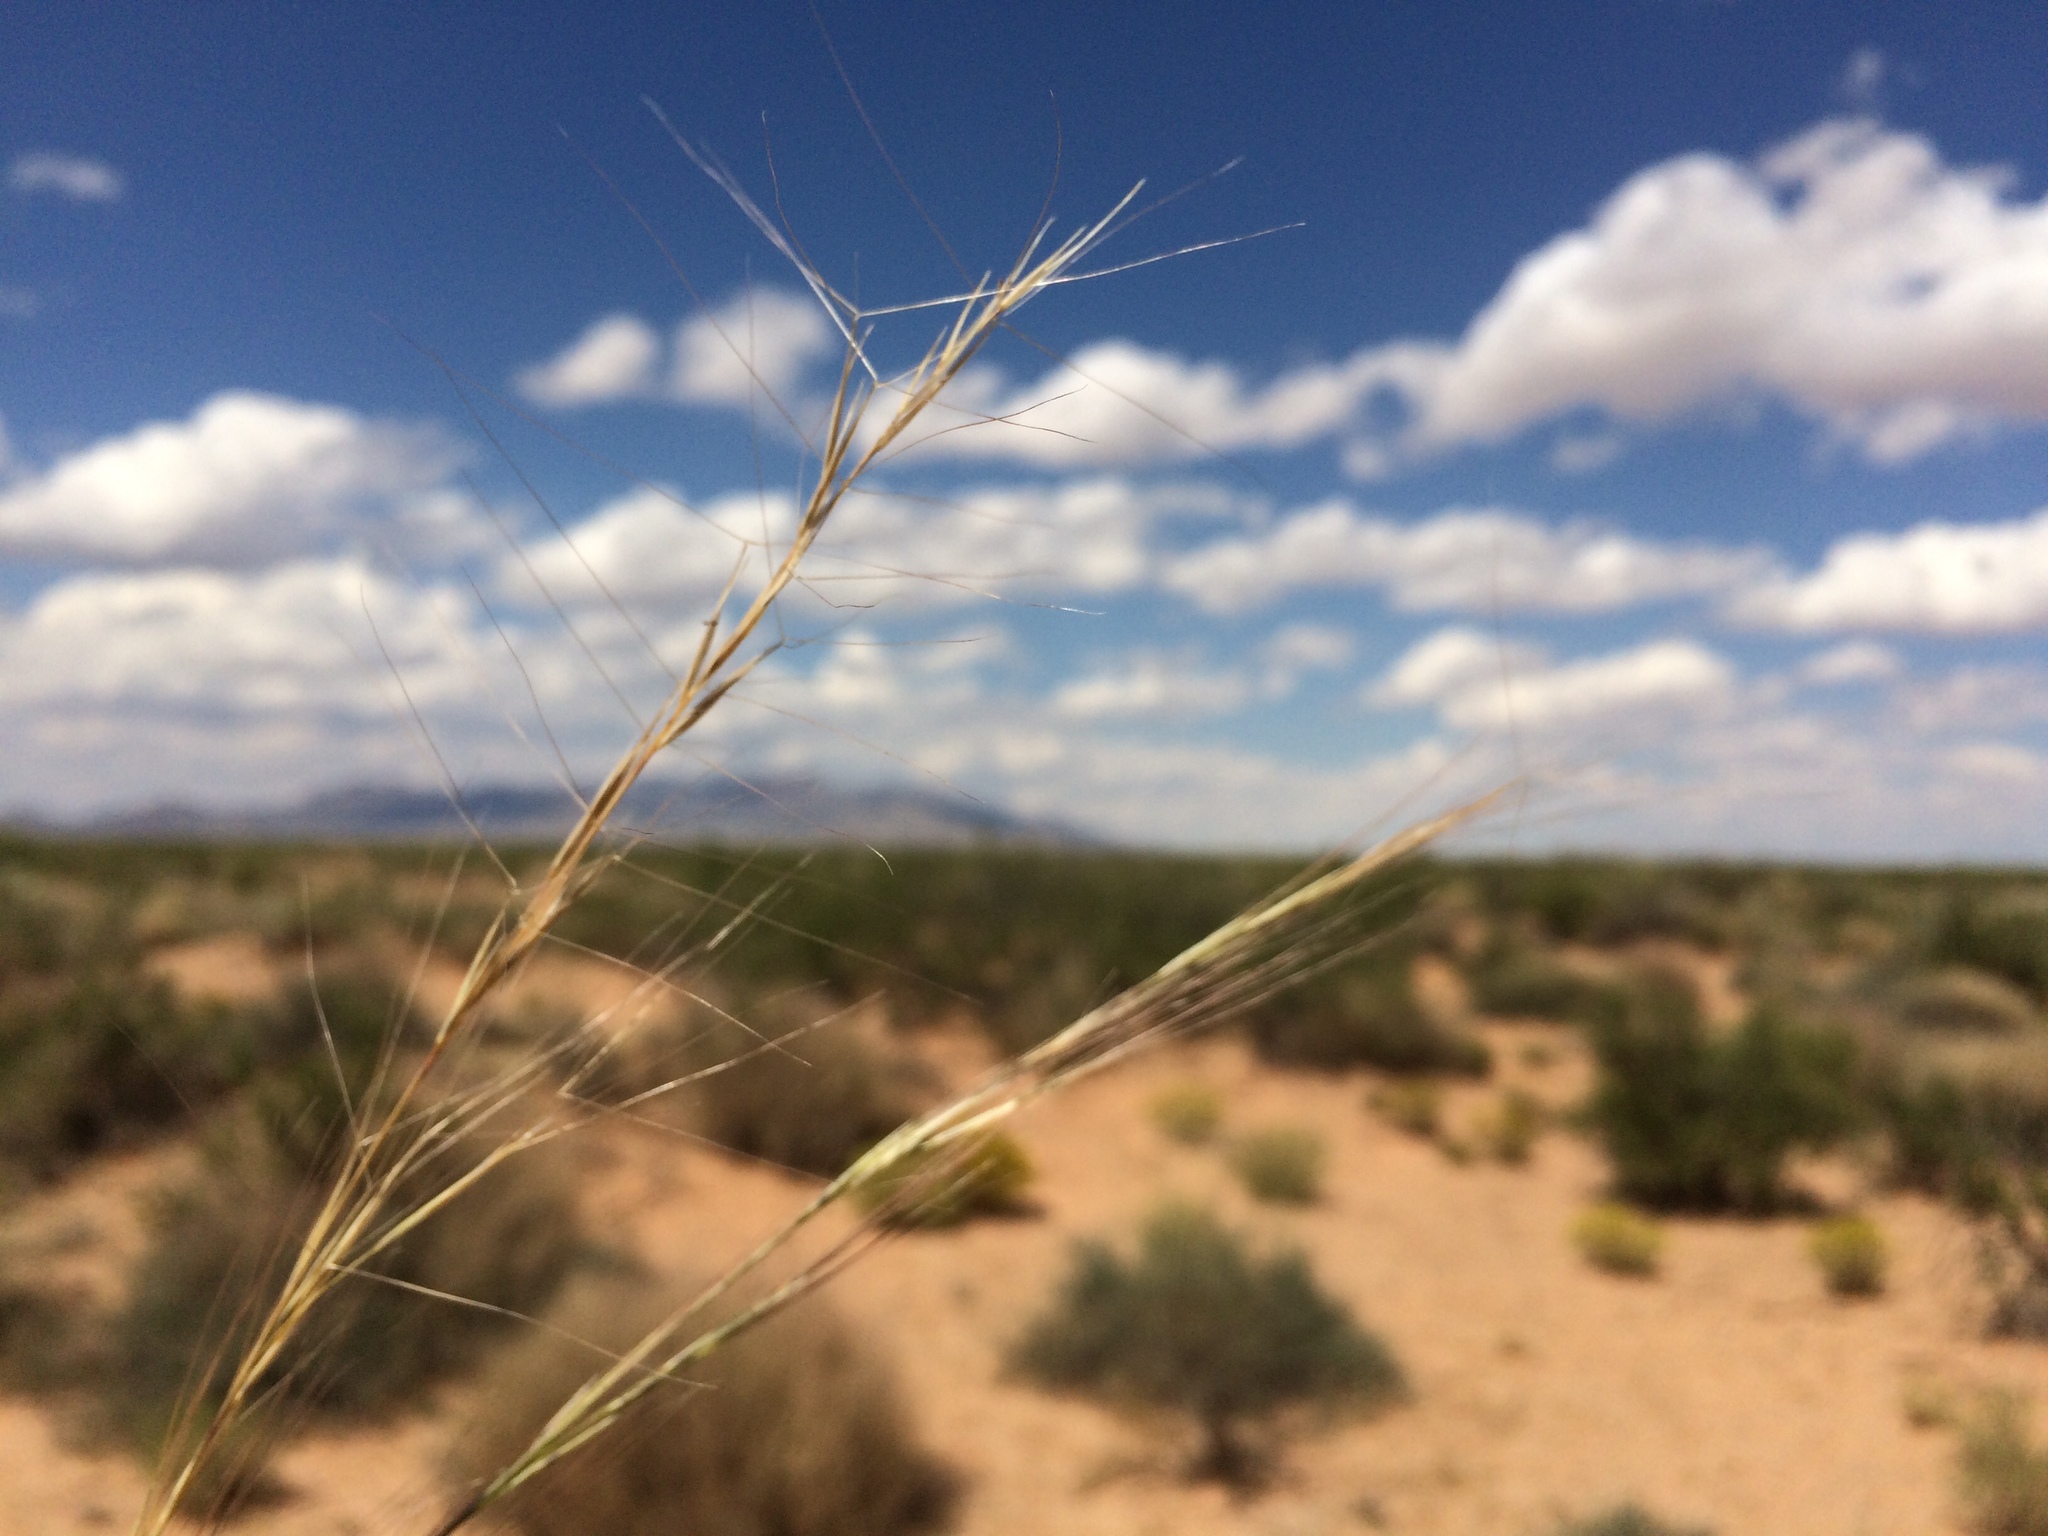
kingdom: Plantae
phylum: Tracheophyta
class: Liliopsida
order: Poales
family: Poaceae
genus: Aristida
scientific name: Aristida purpurea
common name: Purple threeawn
